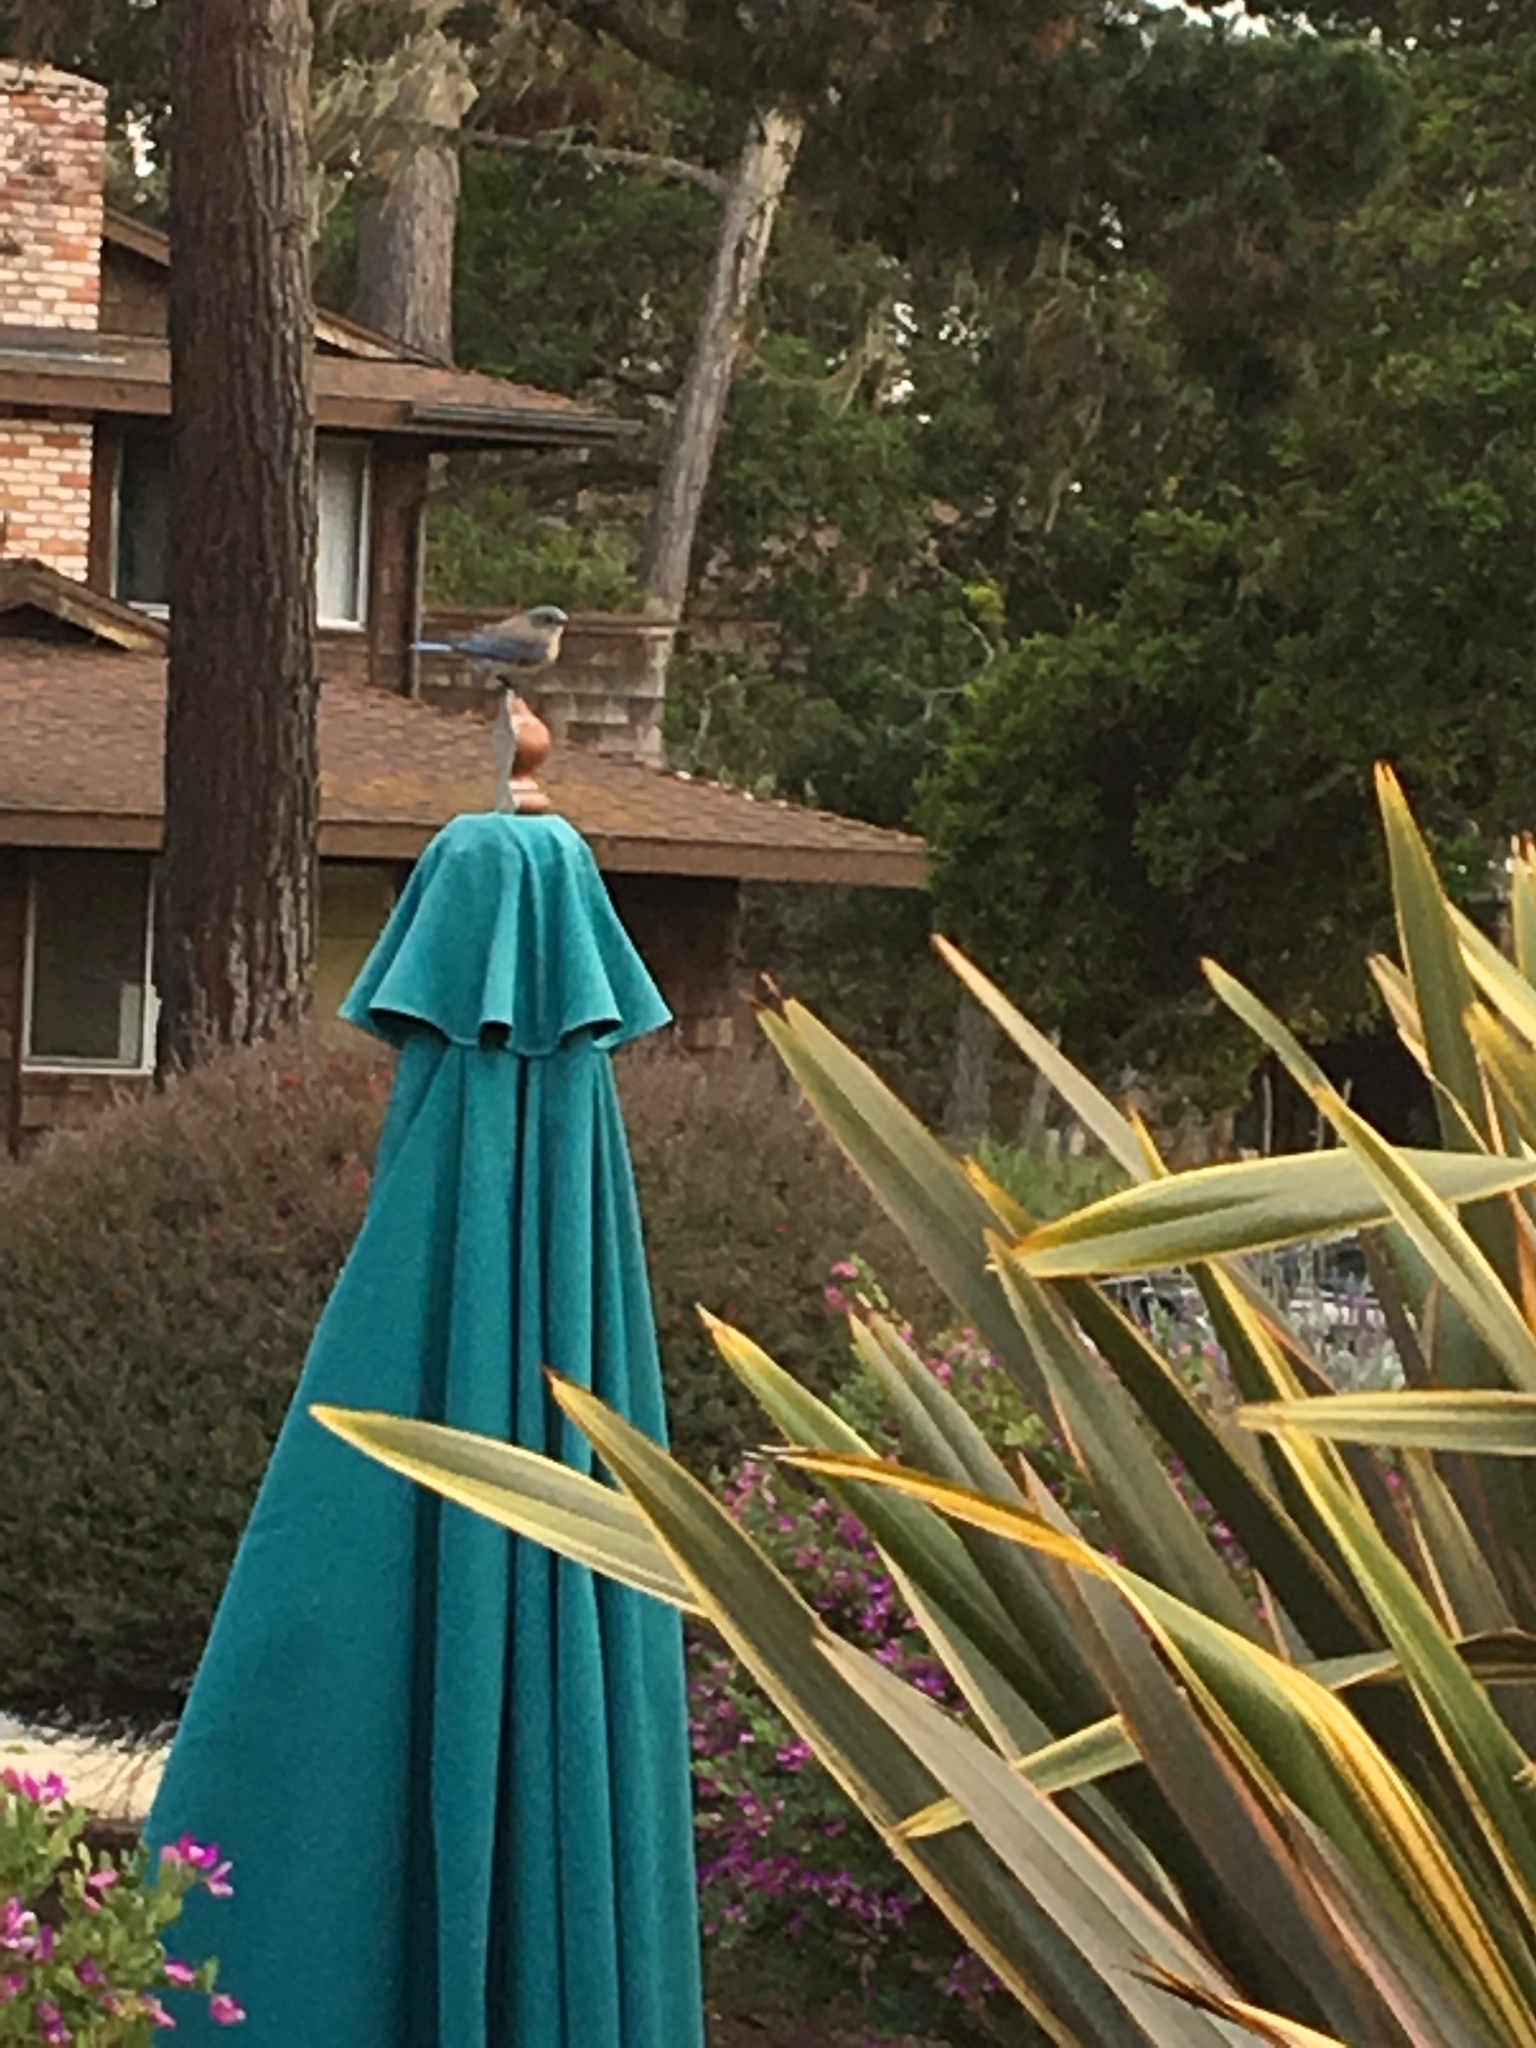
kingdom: Animalia
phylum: Chordata
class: Aves
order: Passeriformes
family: Turdidae
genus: Sialia
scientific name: Sialia mexicana
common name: Western bluebird
